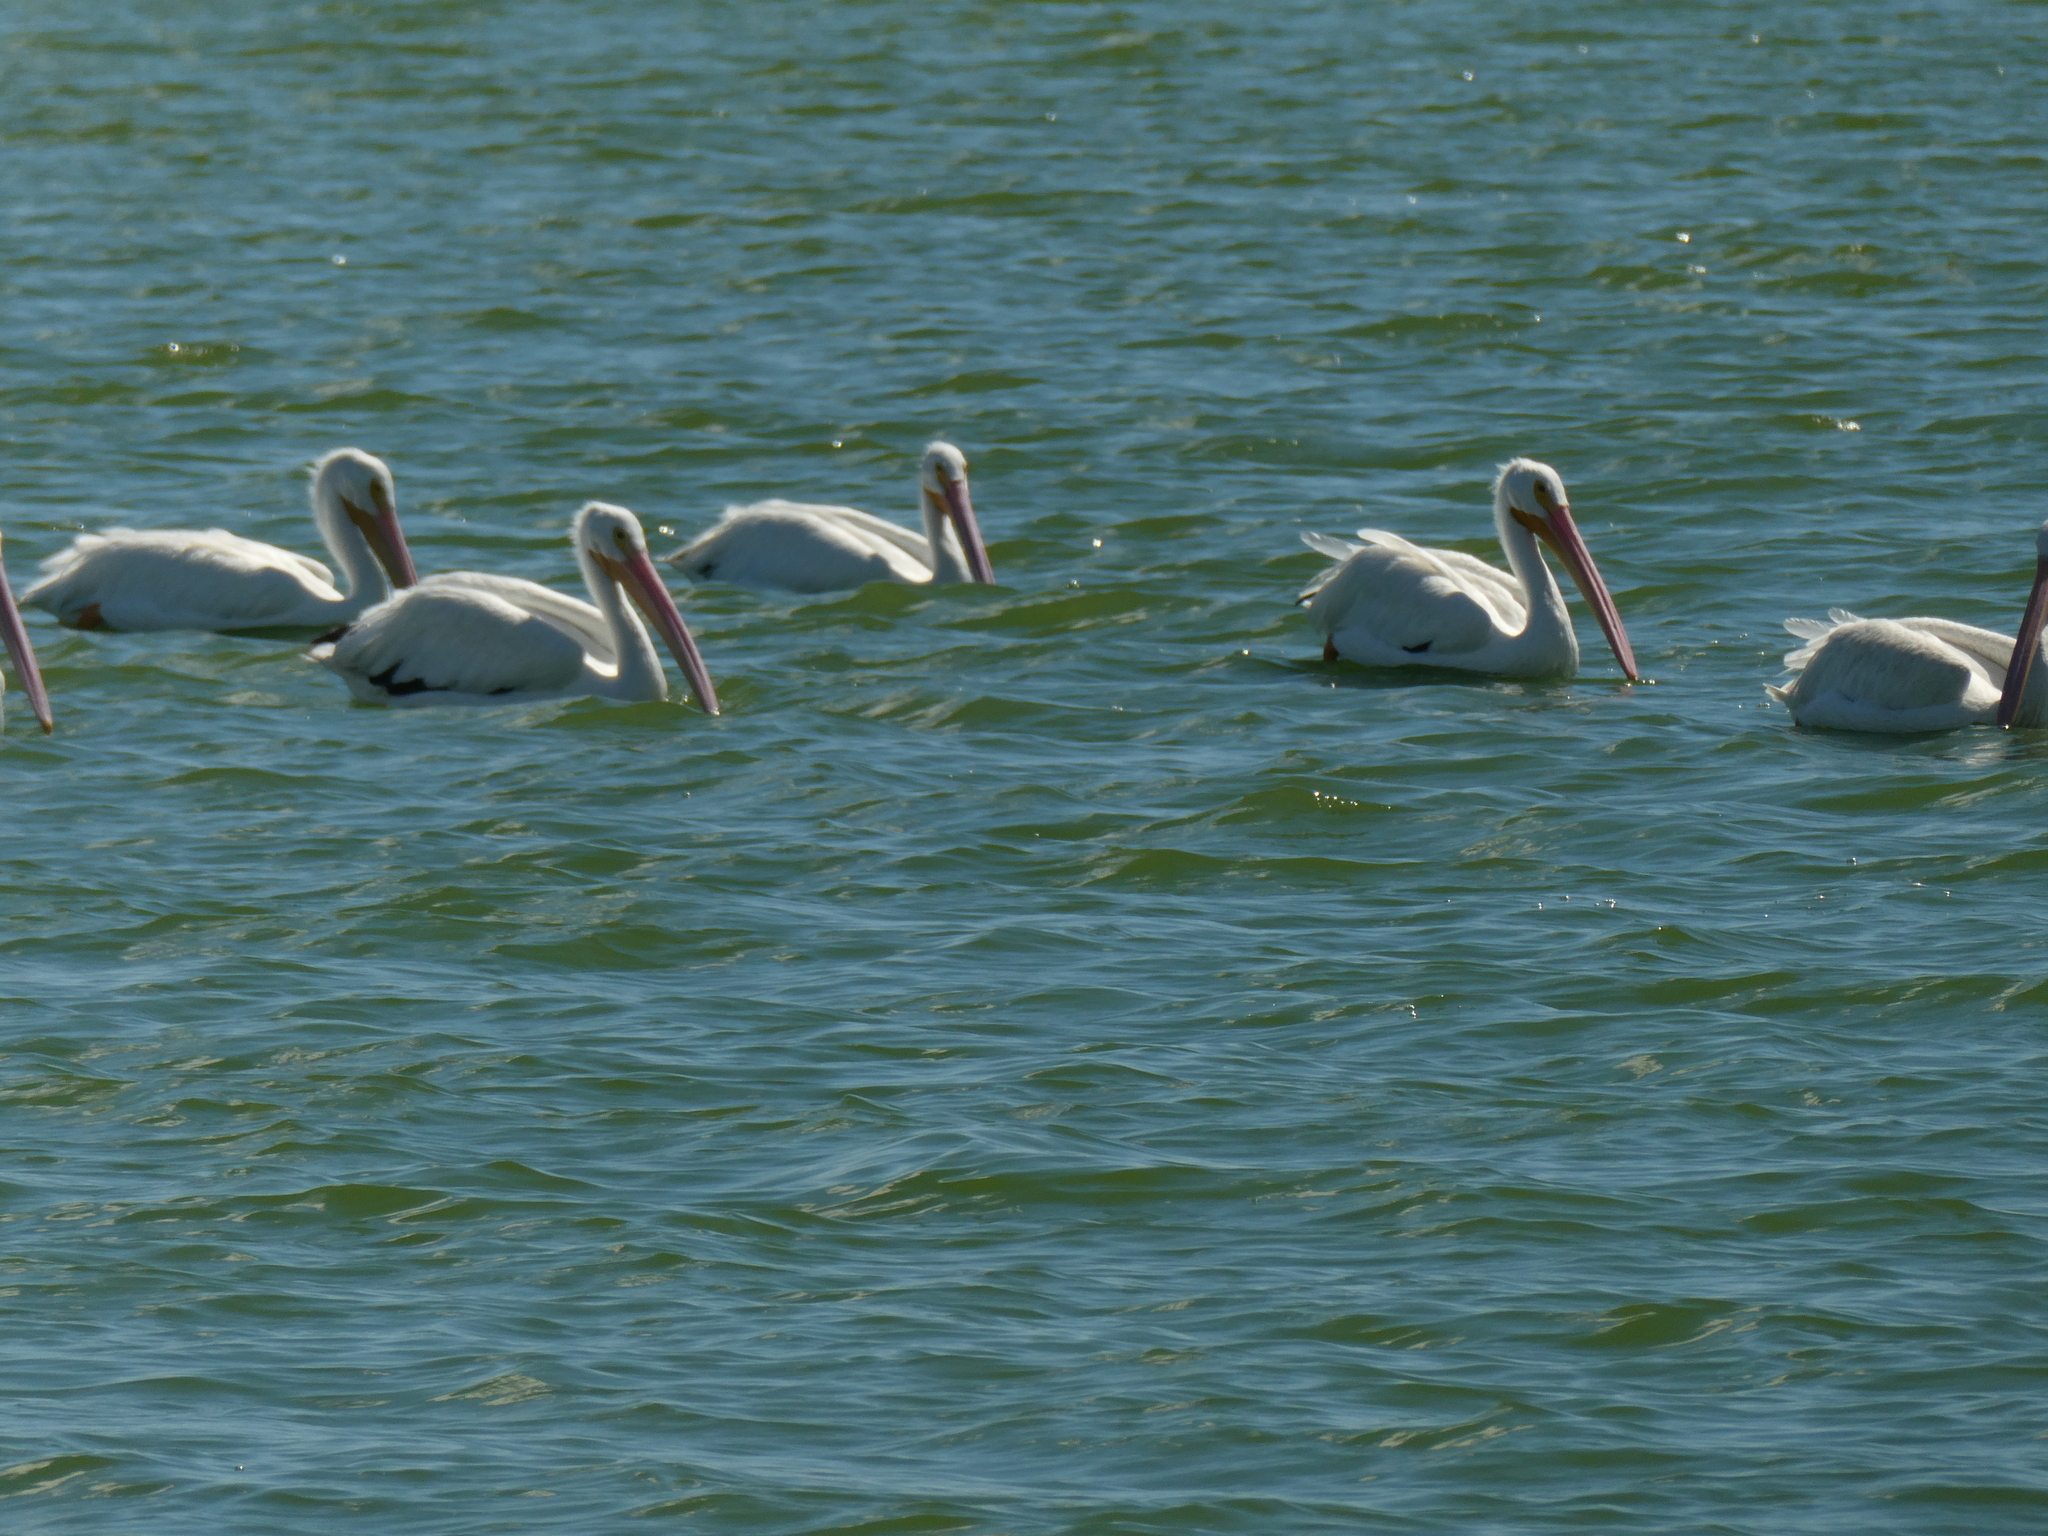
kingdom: Animalia
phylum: Chordata
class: Aves
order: Pelecaniformes
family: Pelecanidae
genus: Pelecanus
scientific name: Pelecanus erythrorhynchos
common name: American white pelican
